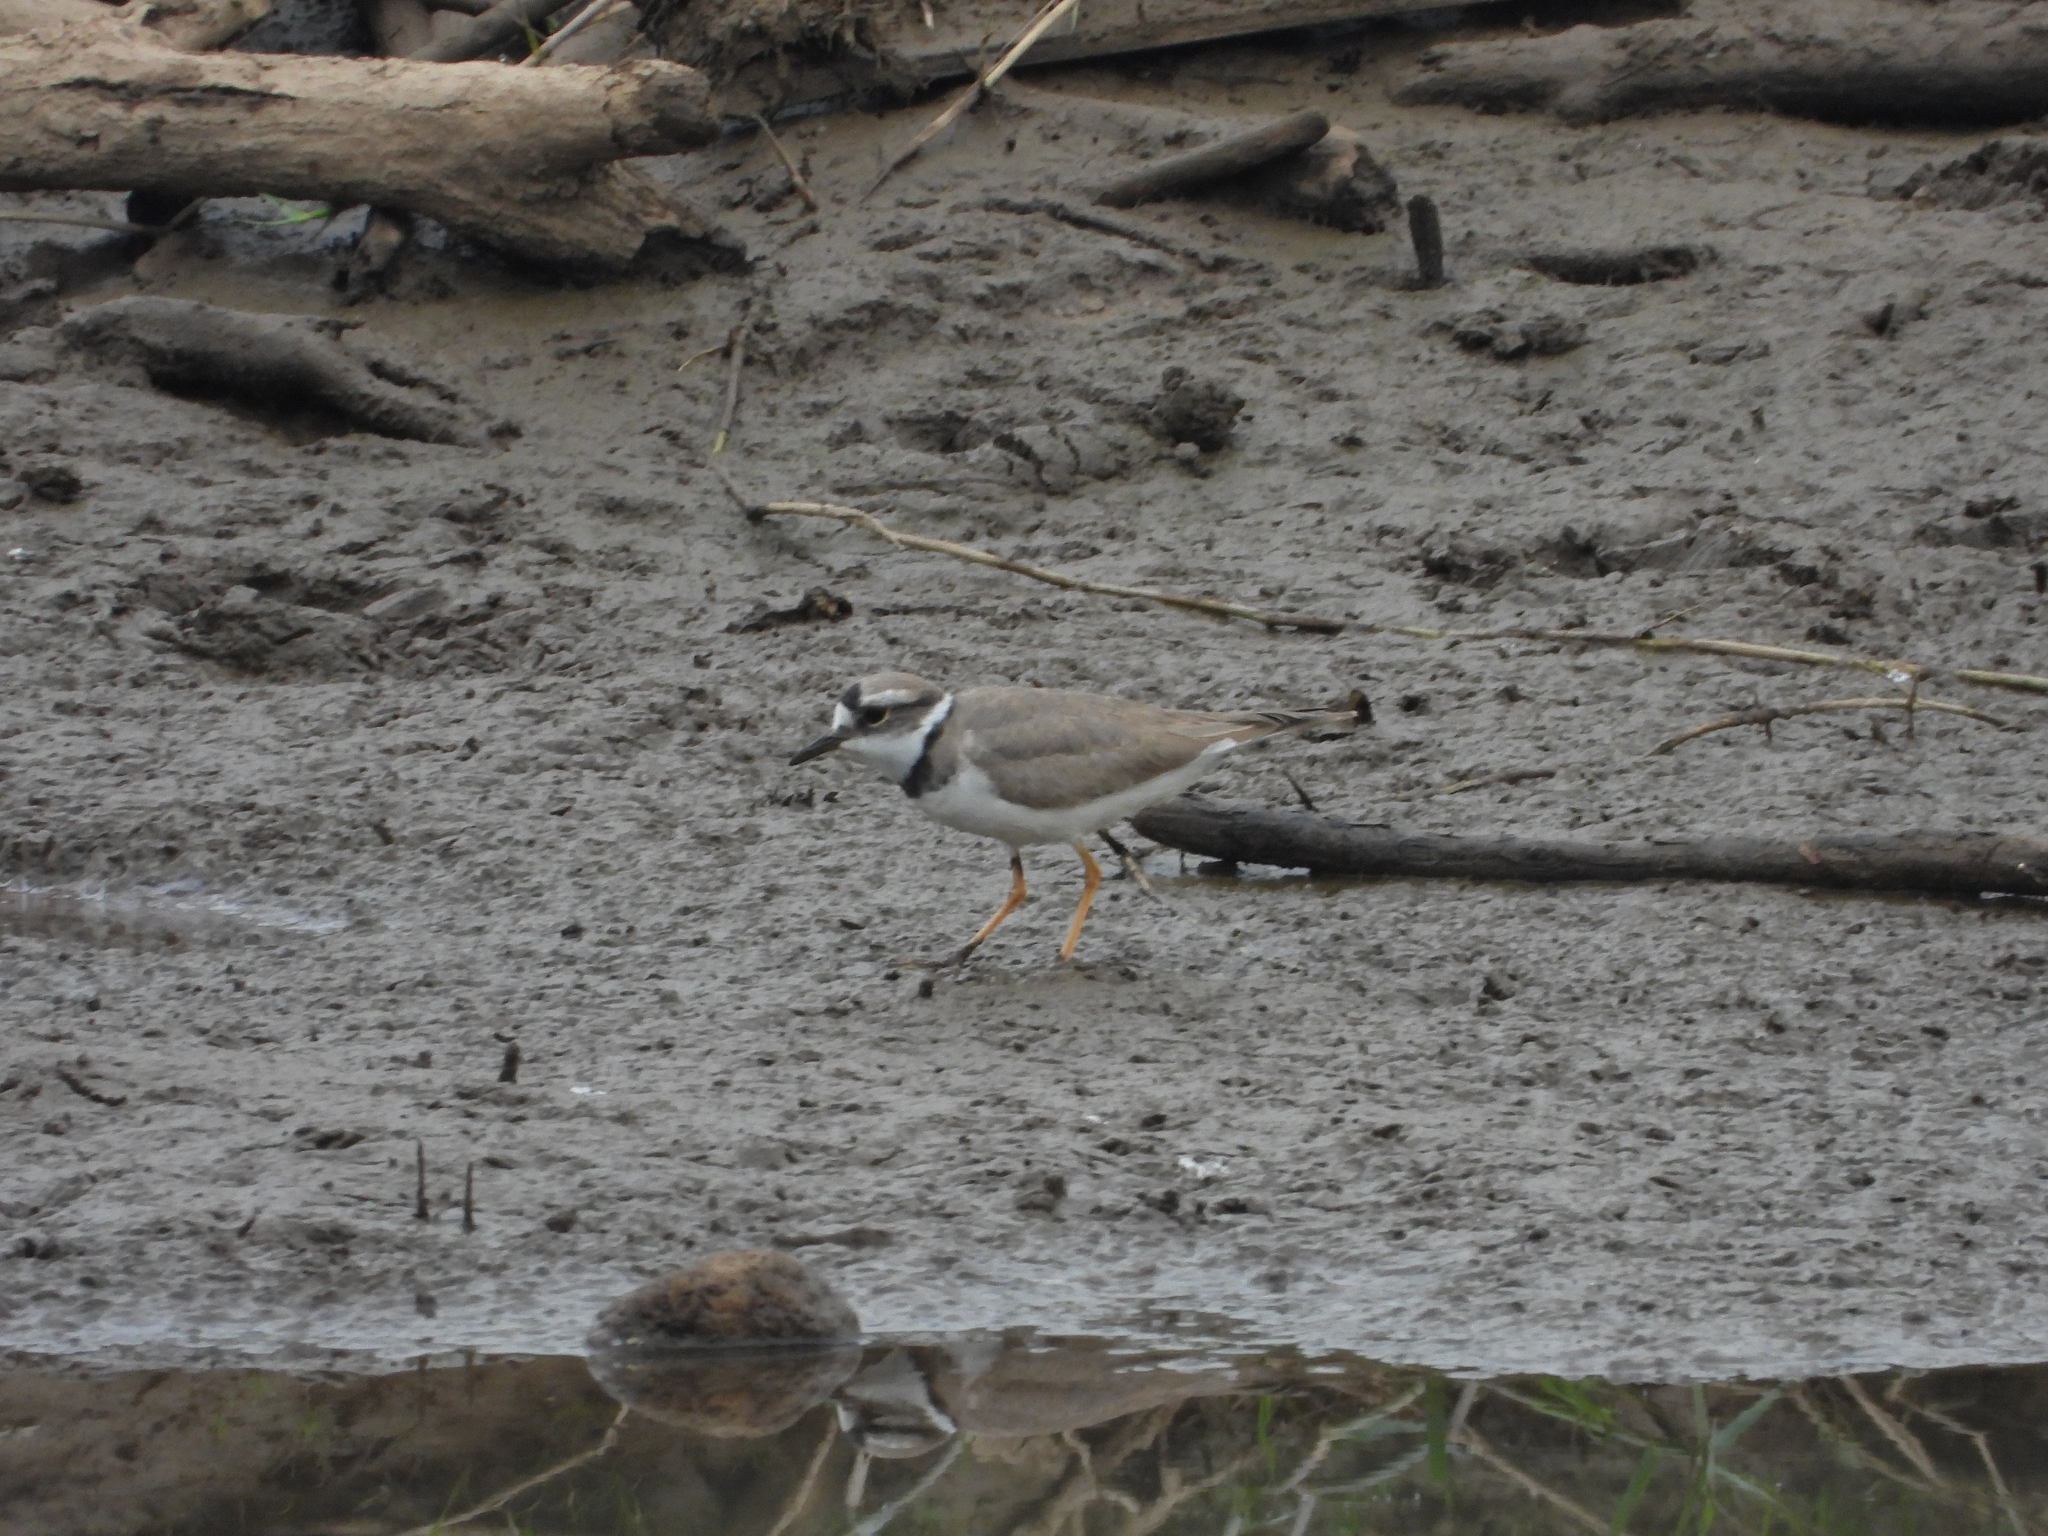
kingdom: Animalia
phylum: Chordata
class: Aves
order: Charadriiformes
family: Charadriidae
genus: Charadrius
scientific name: Charadrius placidus
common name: Long-billed plover
